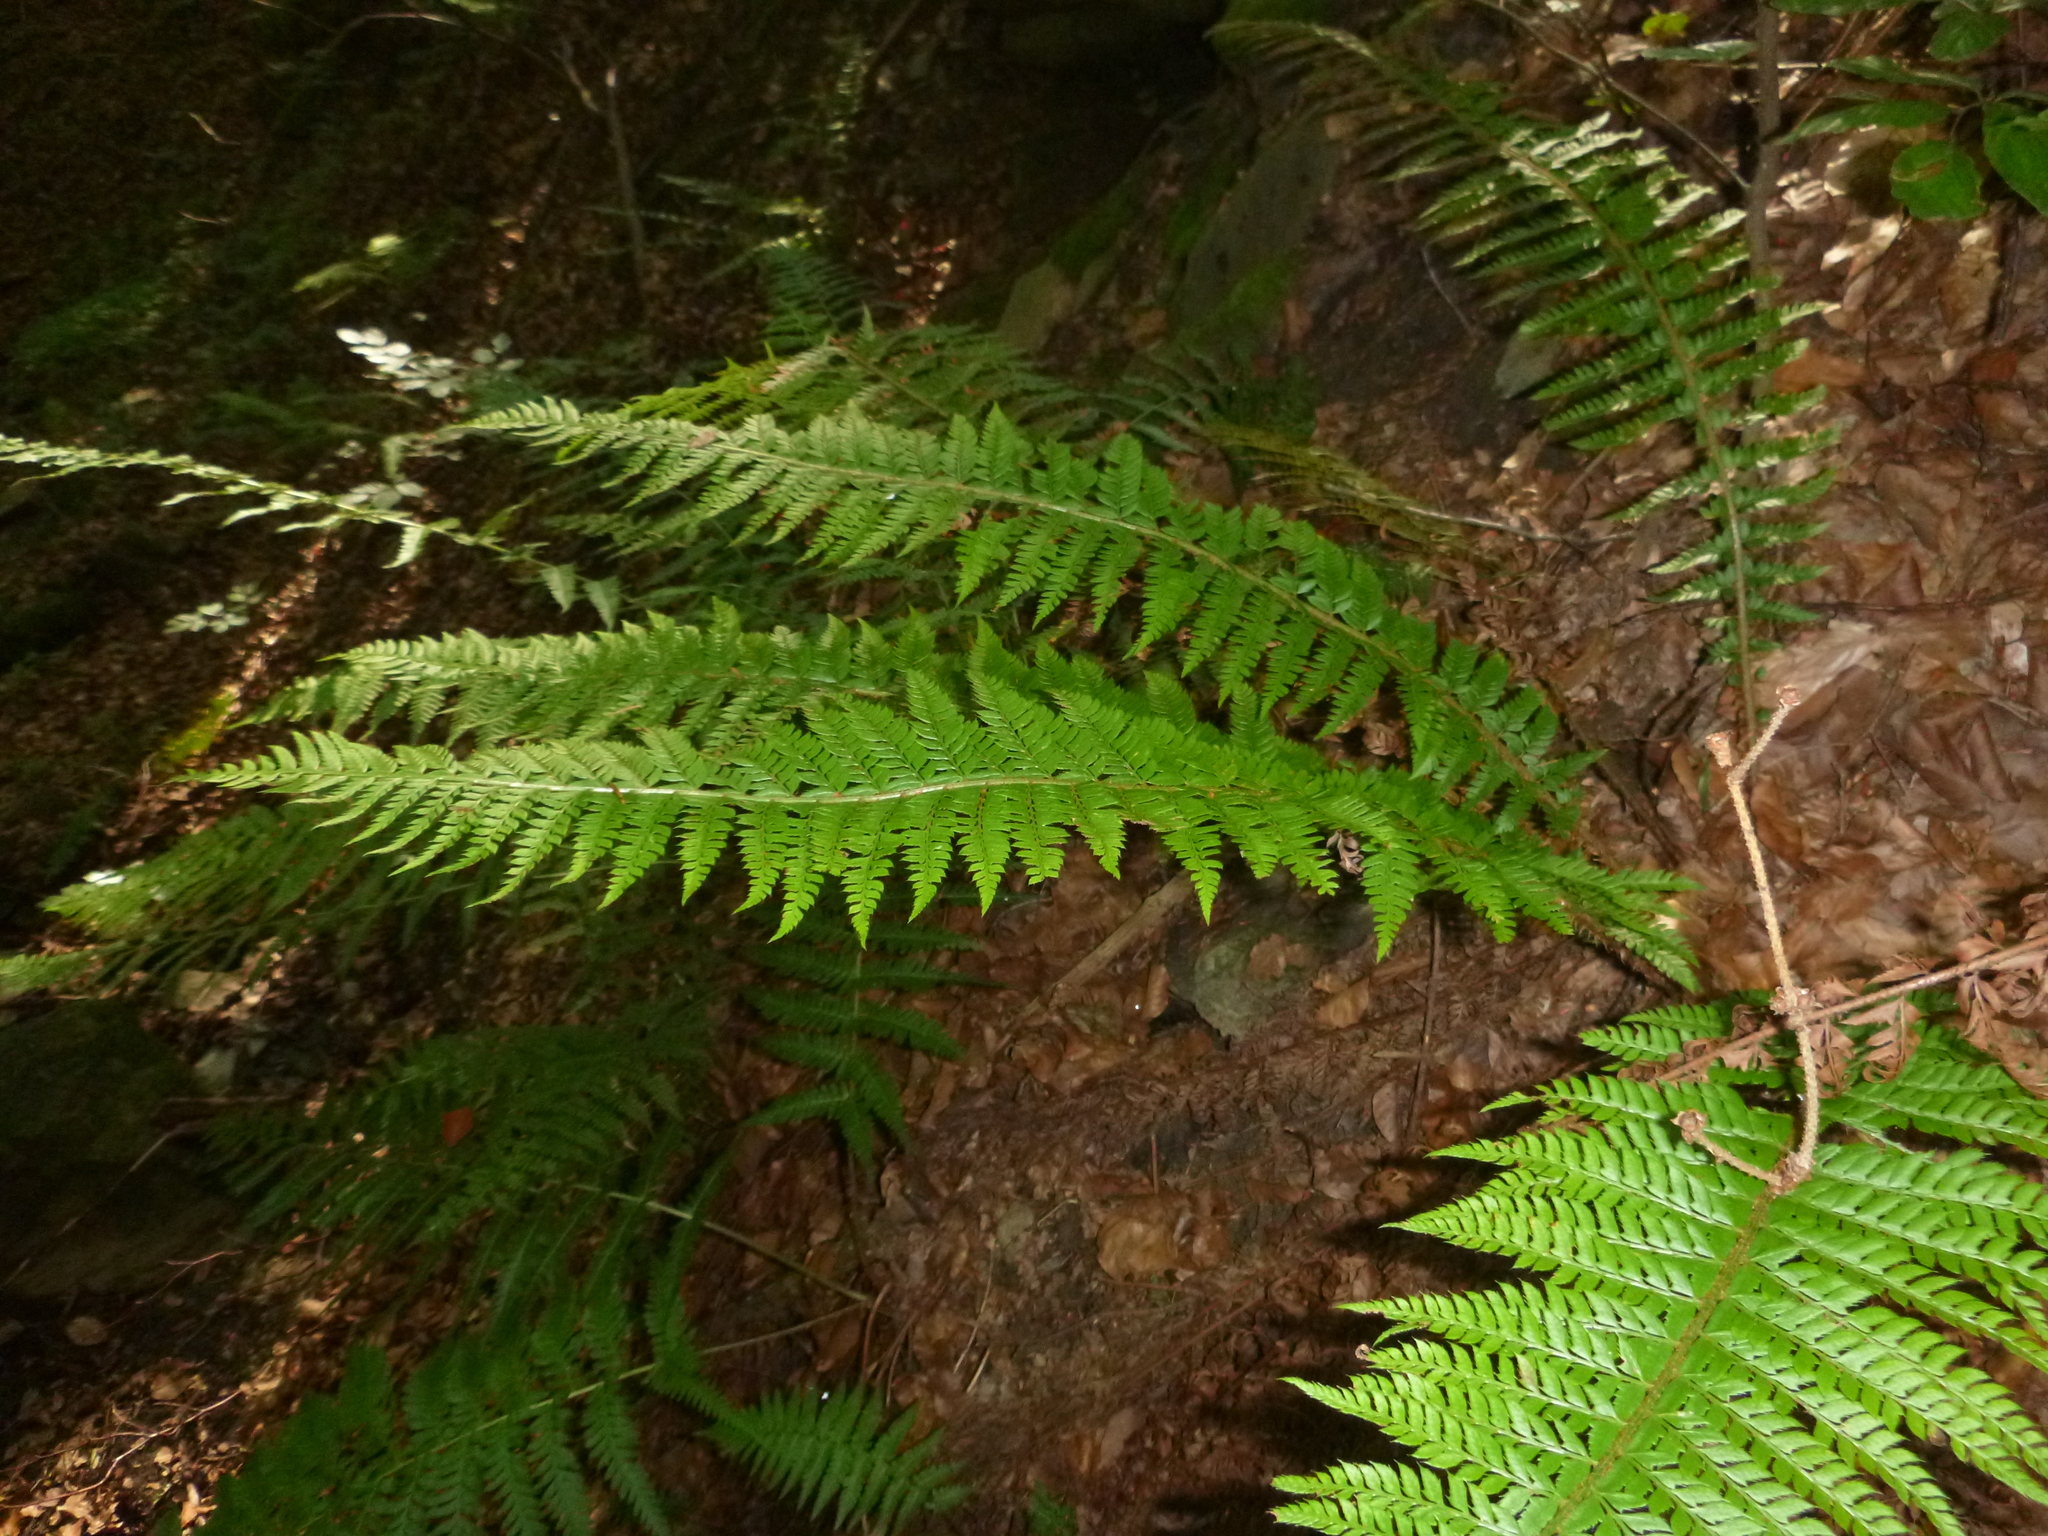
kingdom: Plantae
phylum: Tracheophyta
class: Polypodiopsida
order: Polypodiales
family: Dryopteridaceae
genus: Polystichum
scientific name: Polystichum aculeatum
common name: Hard shield-fern
